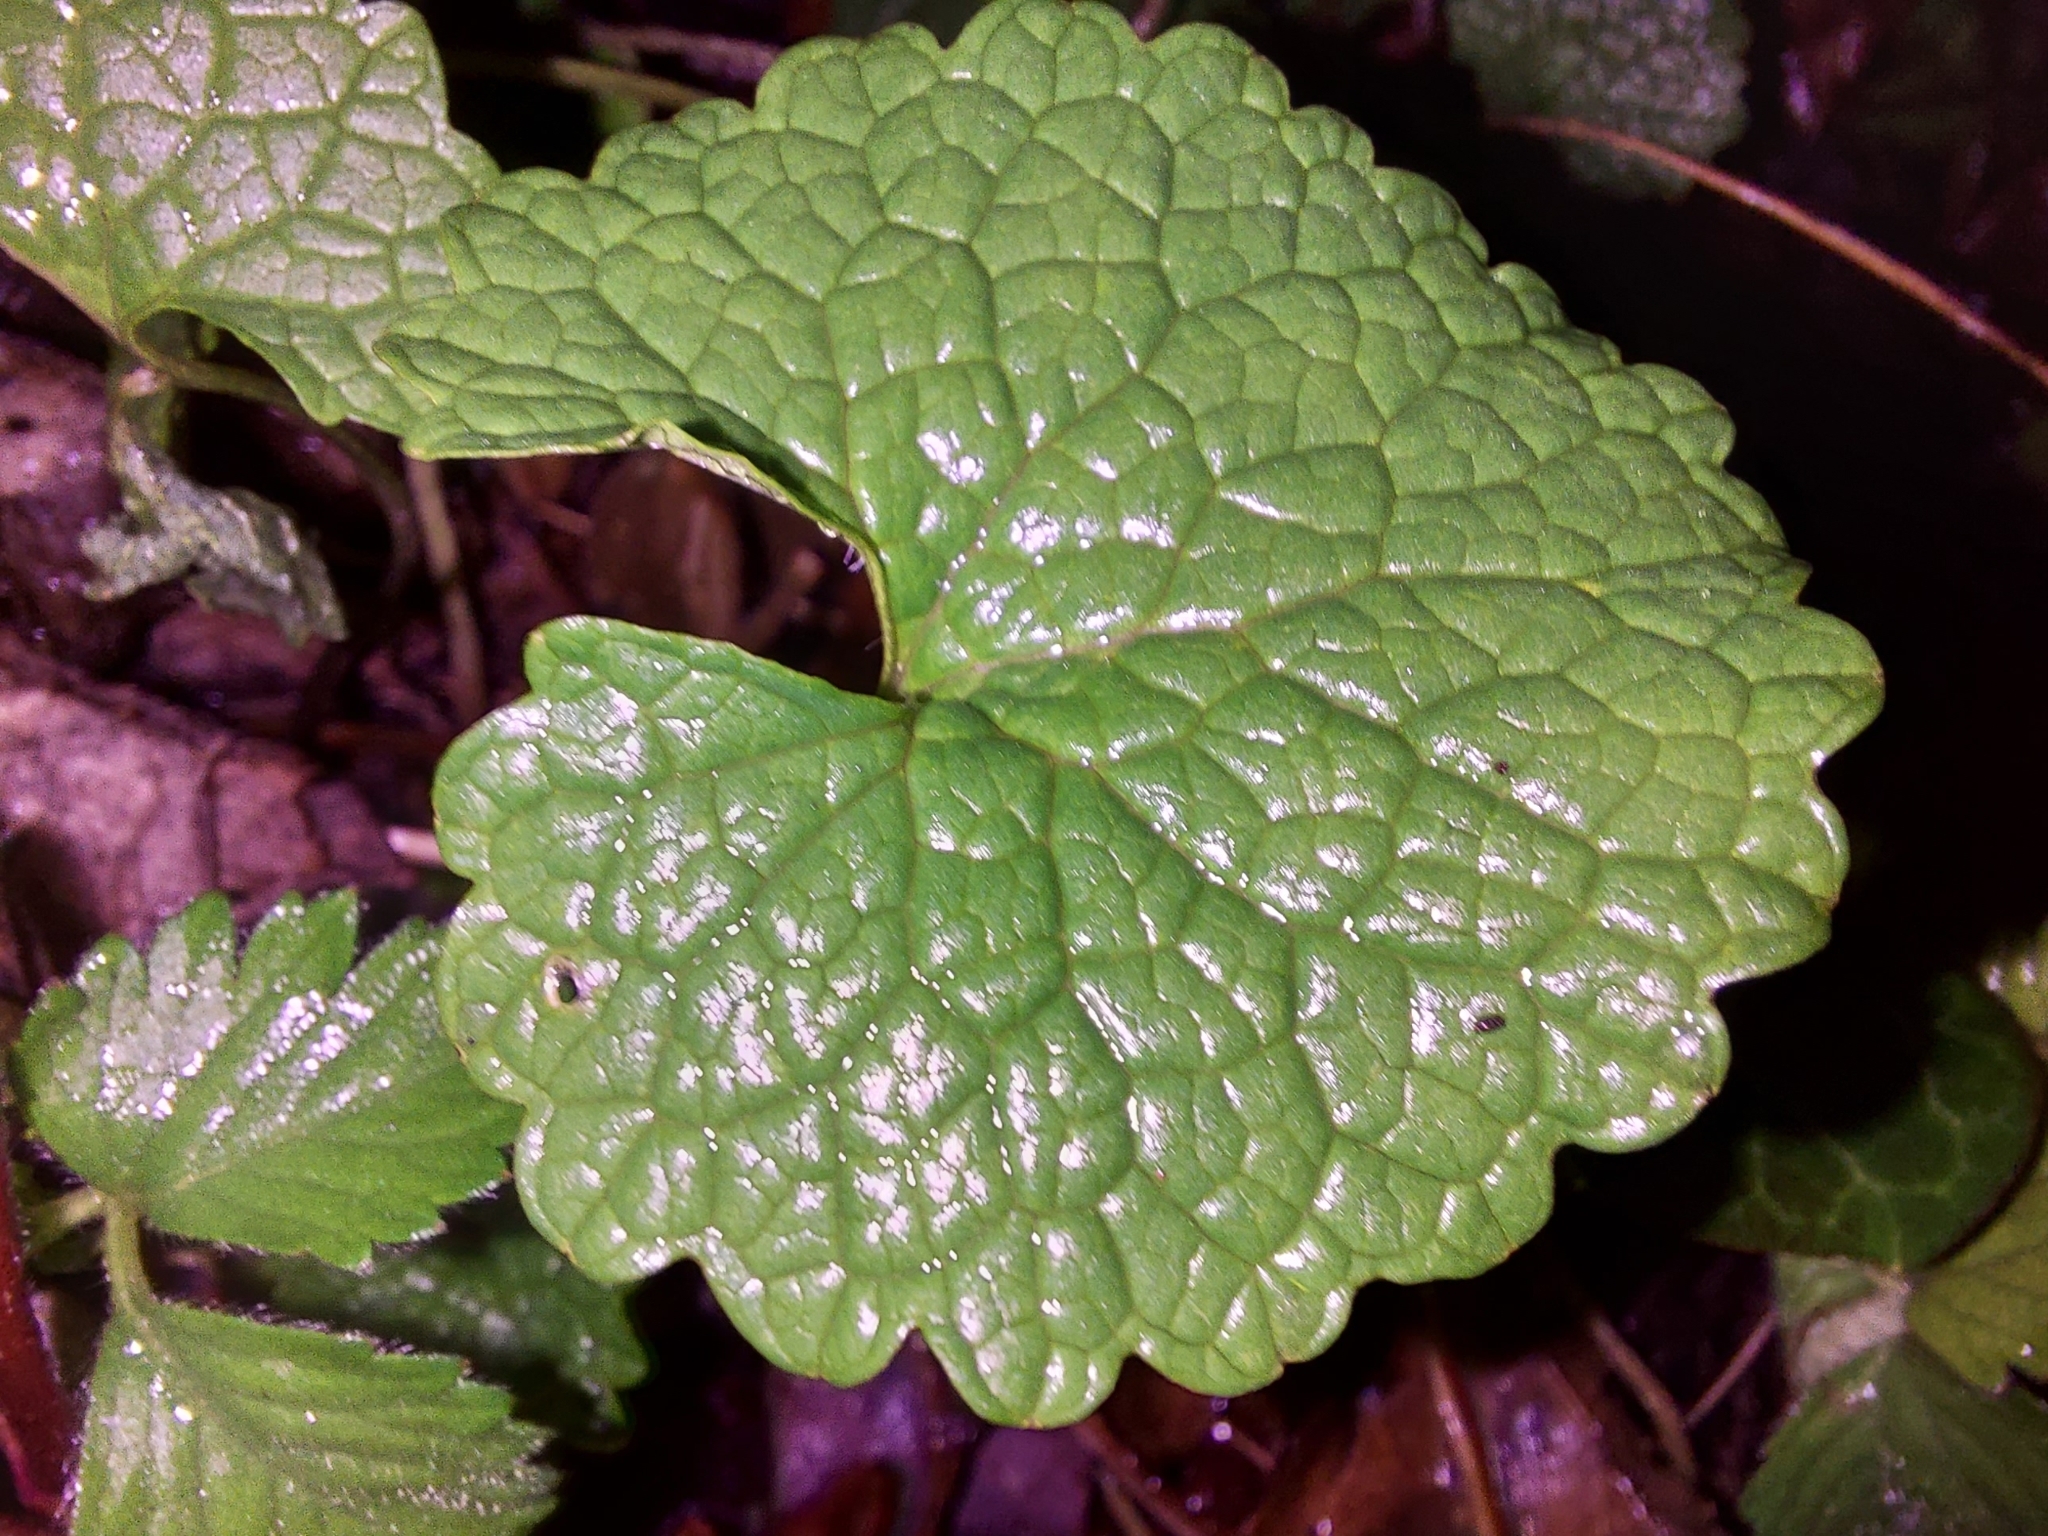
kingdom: Plantae
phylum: Tracheophyta
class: Magnoliopsida
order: Brassicales
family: Brassicaceae
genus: Alliaria
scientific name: Alliaria petiolata
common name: Garlic mustard
